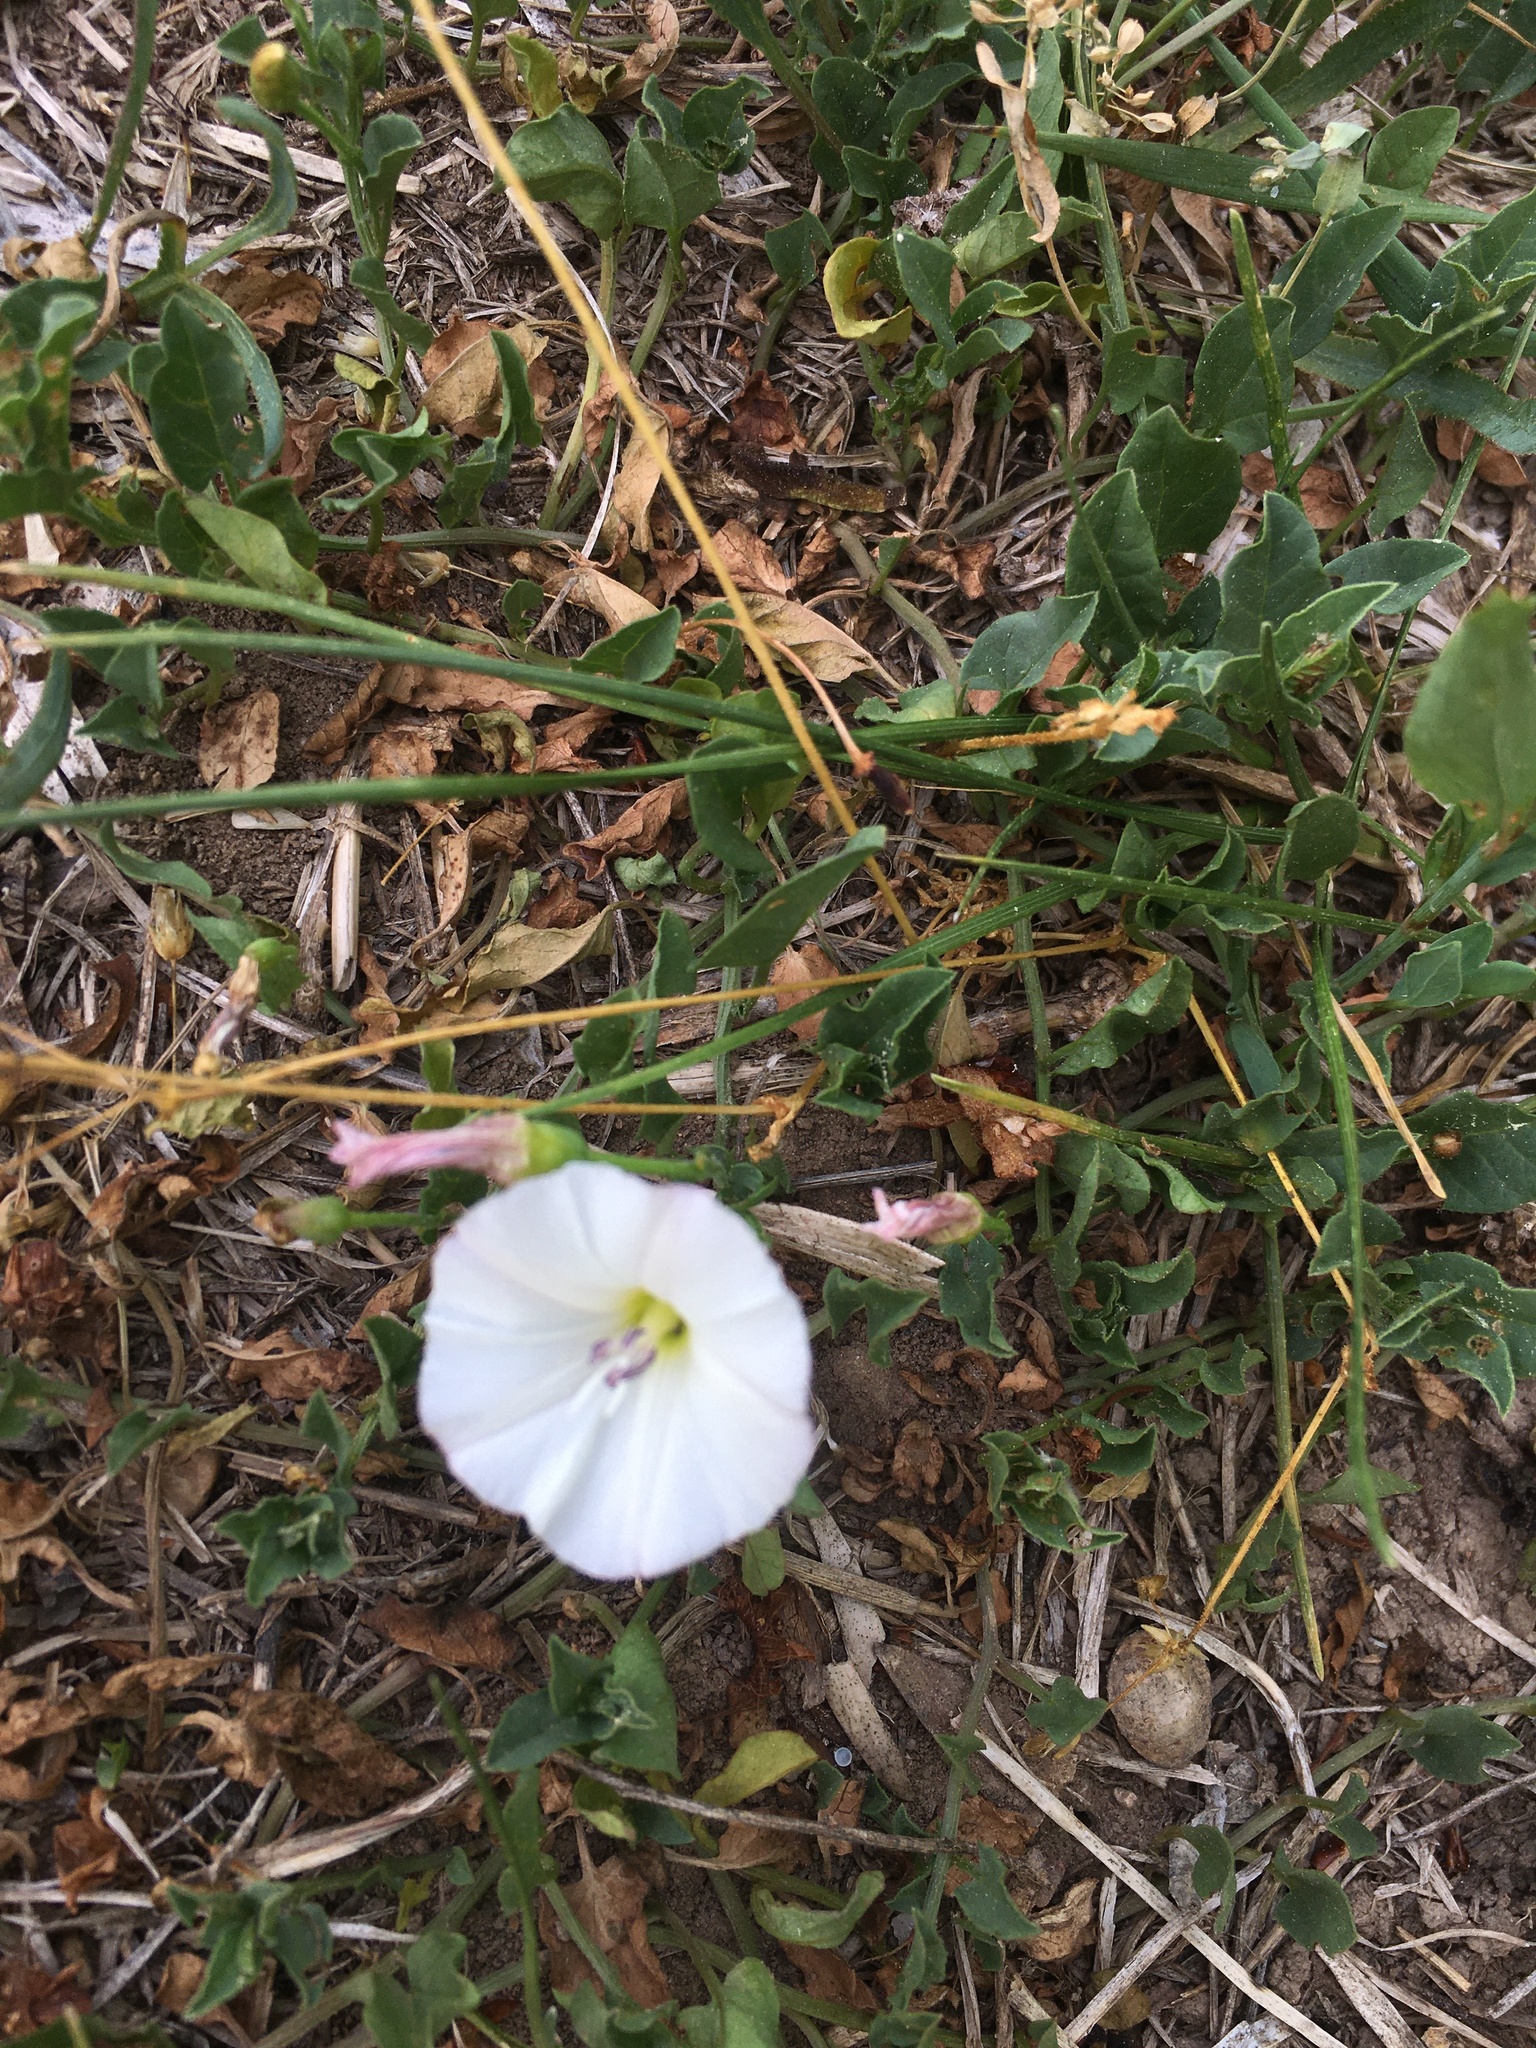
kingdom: Plantae
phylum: Tracheophyta
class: Magnoliopsida
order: Solanales
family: Convolvulaceae
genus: Convolvulus
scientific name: Convolvulus arvensis
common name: Field bindweed
